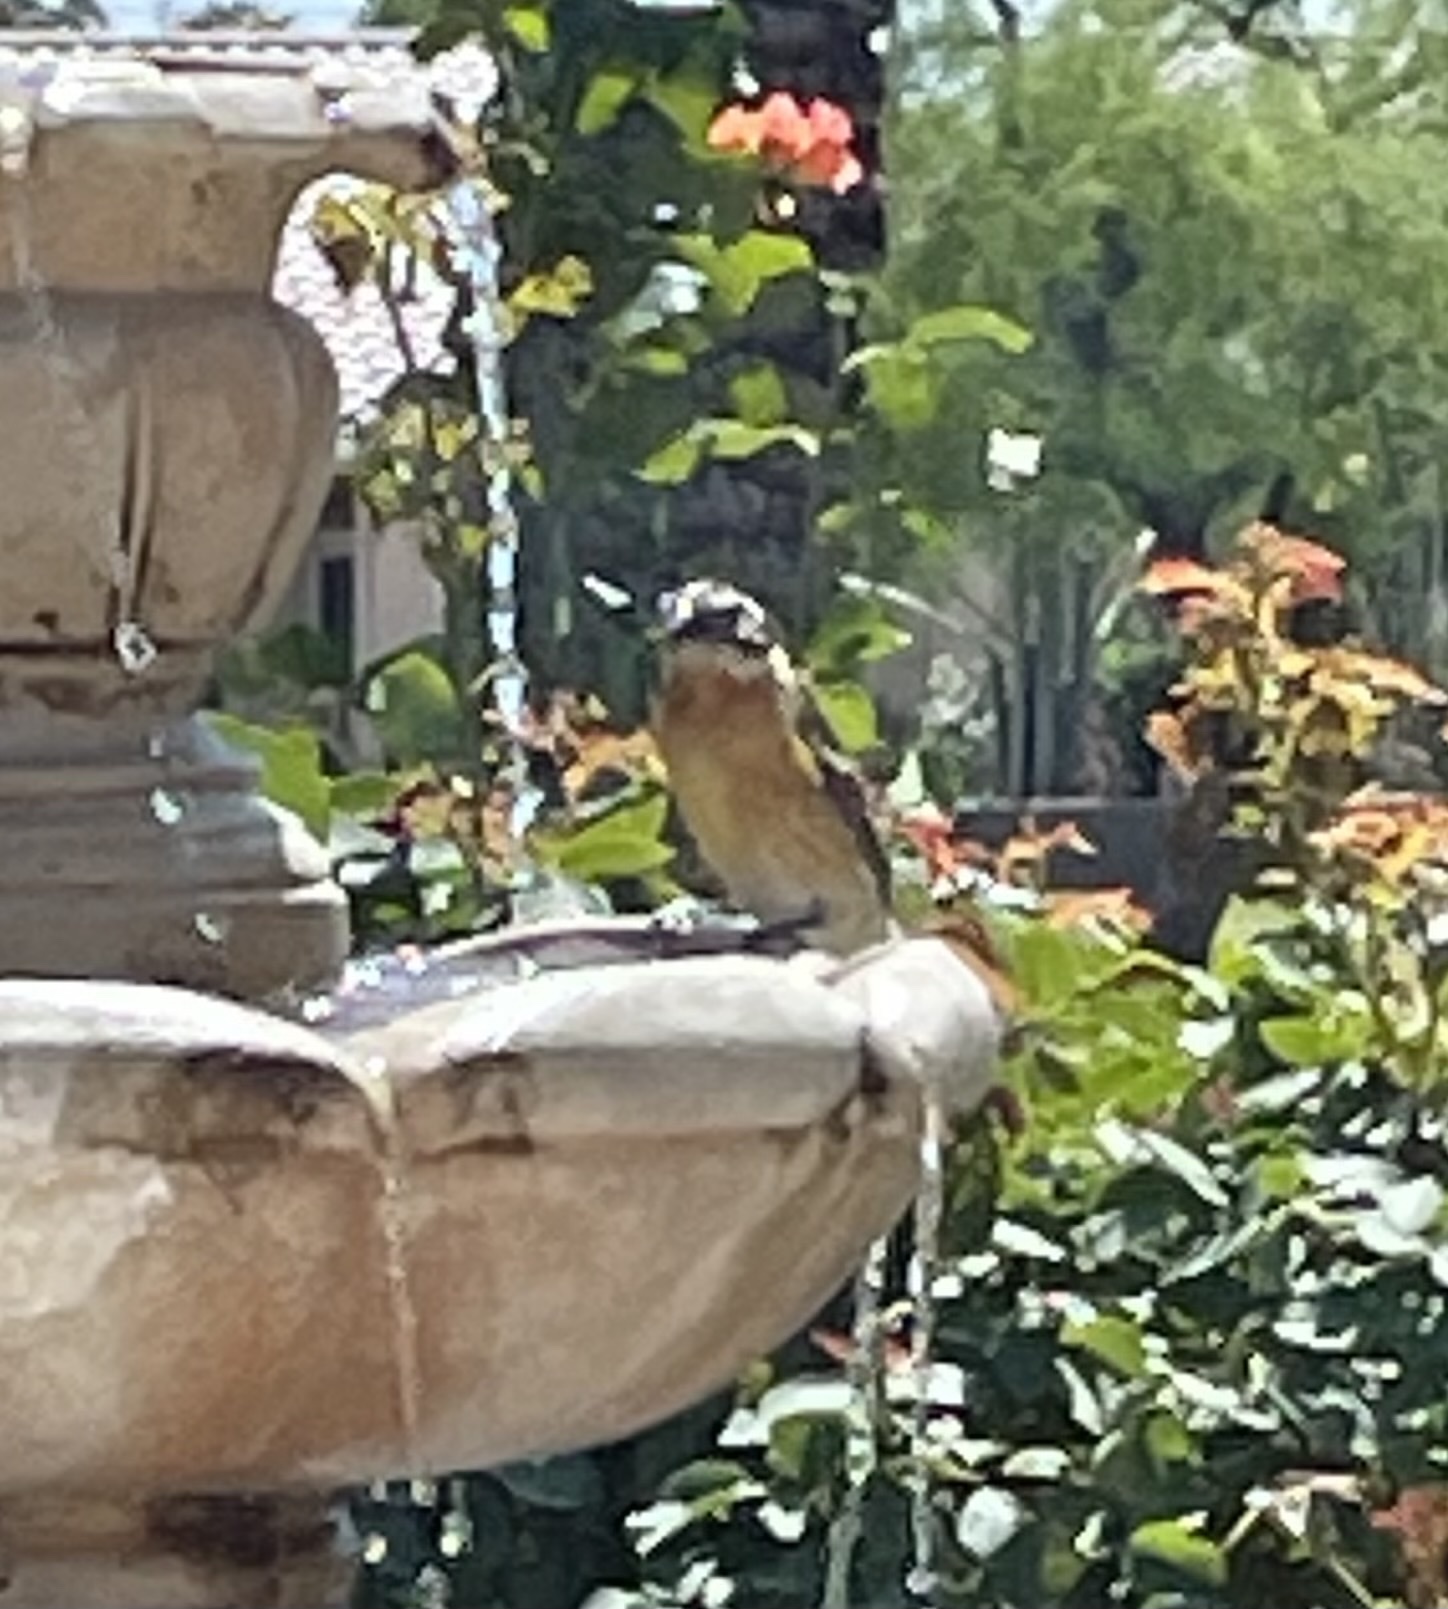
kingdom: Animalia
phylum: Chordata
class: Aves
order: Passeriformes
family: Cardinalidae
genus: Pheucticus
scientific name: Pheucticus melanocephalus
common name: Black-headed grosbeak
